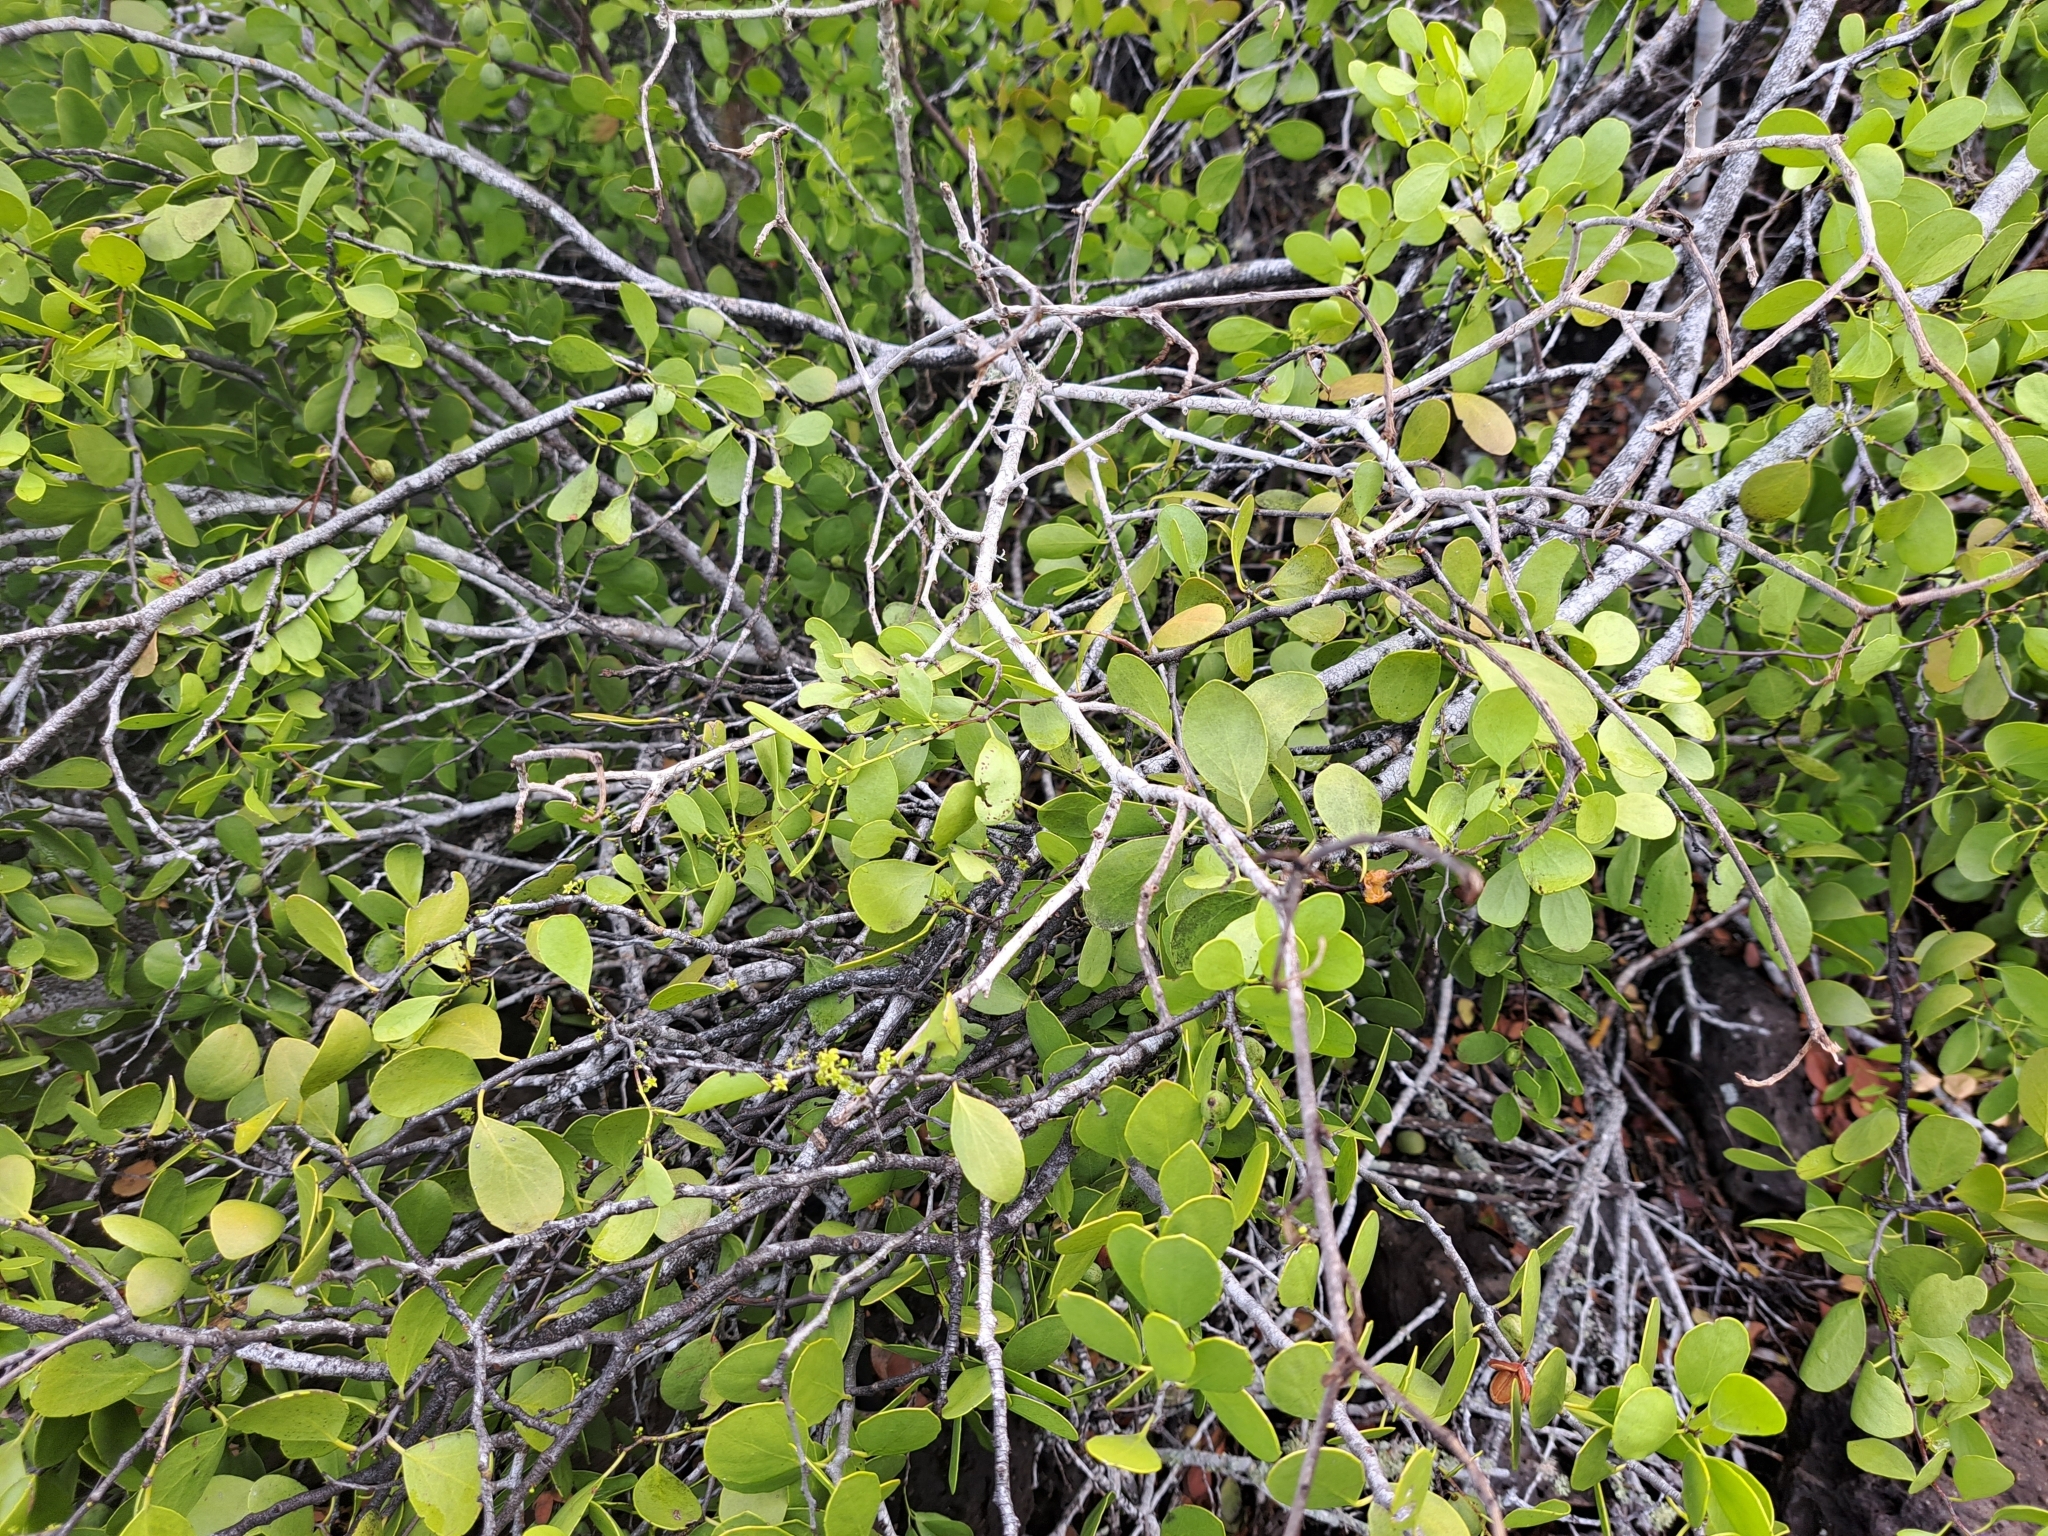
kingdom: Plantae
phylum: Tracheophyta
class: Magnoliopsida
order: Celastrales
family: Celastraceae
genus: Tricerma
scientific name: Tricerma octogonum
